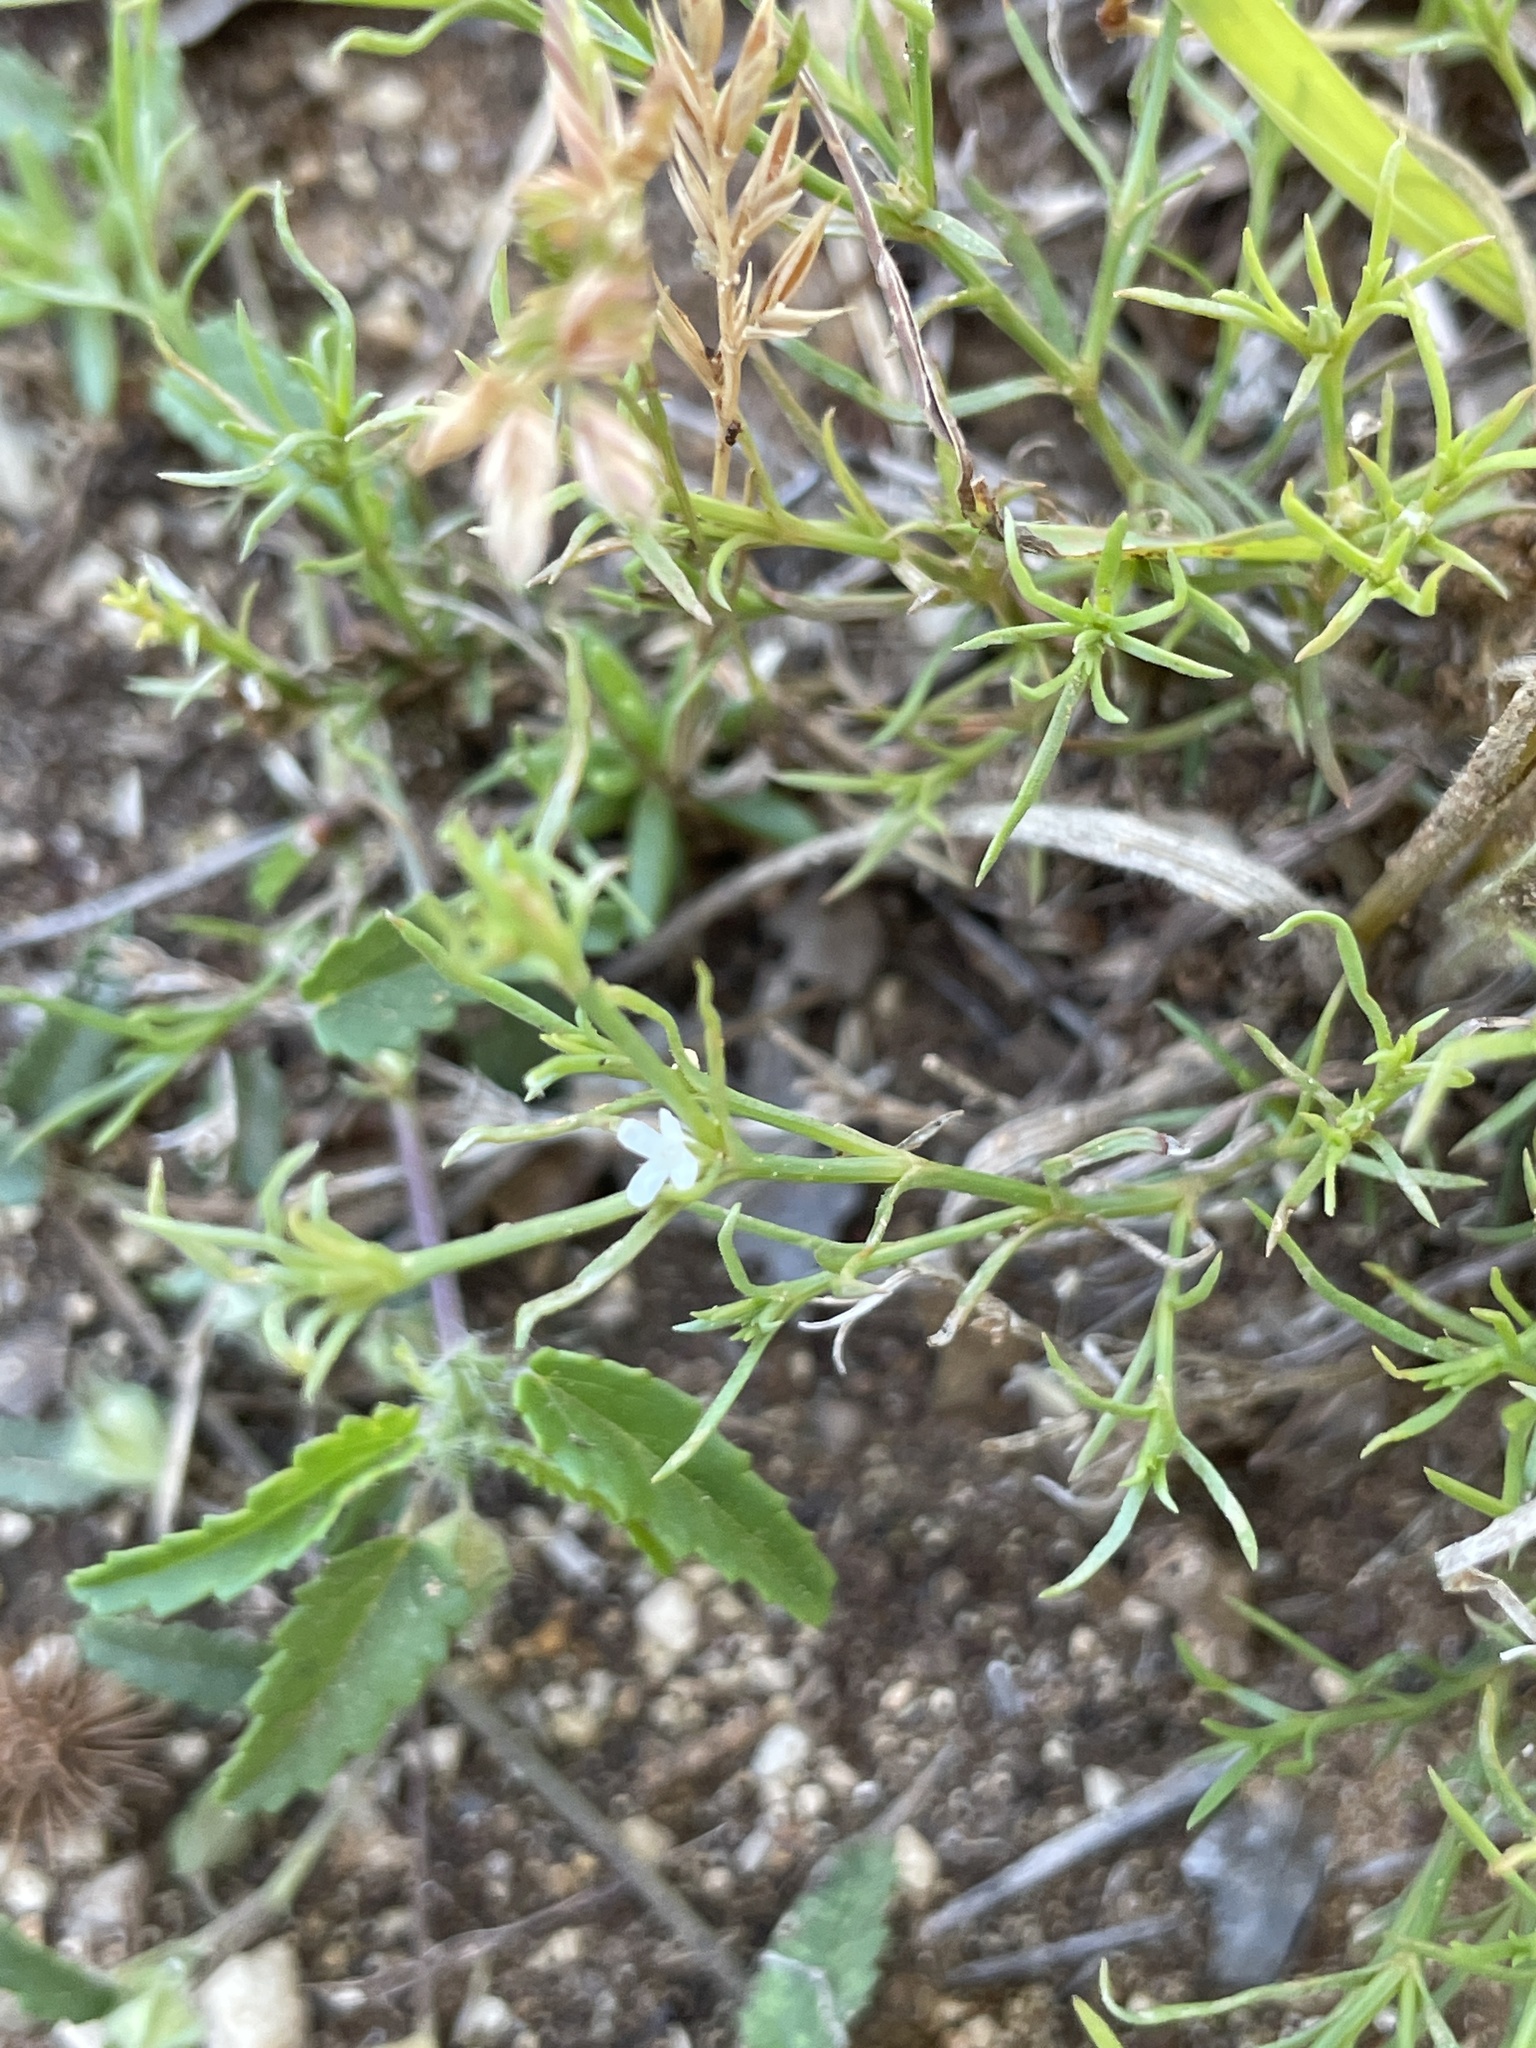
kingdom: Plantae
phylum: Tracheophyta
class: Magnoliopsida
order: Lamiales
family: Tetrachondraceae
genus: Polypremum
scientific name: Polypremum procumbens
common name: Juniper-leaf
